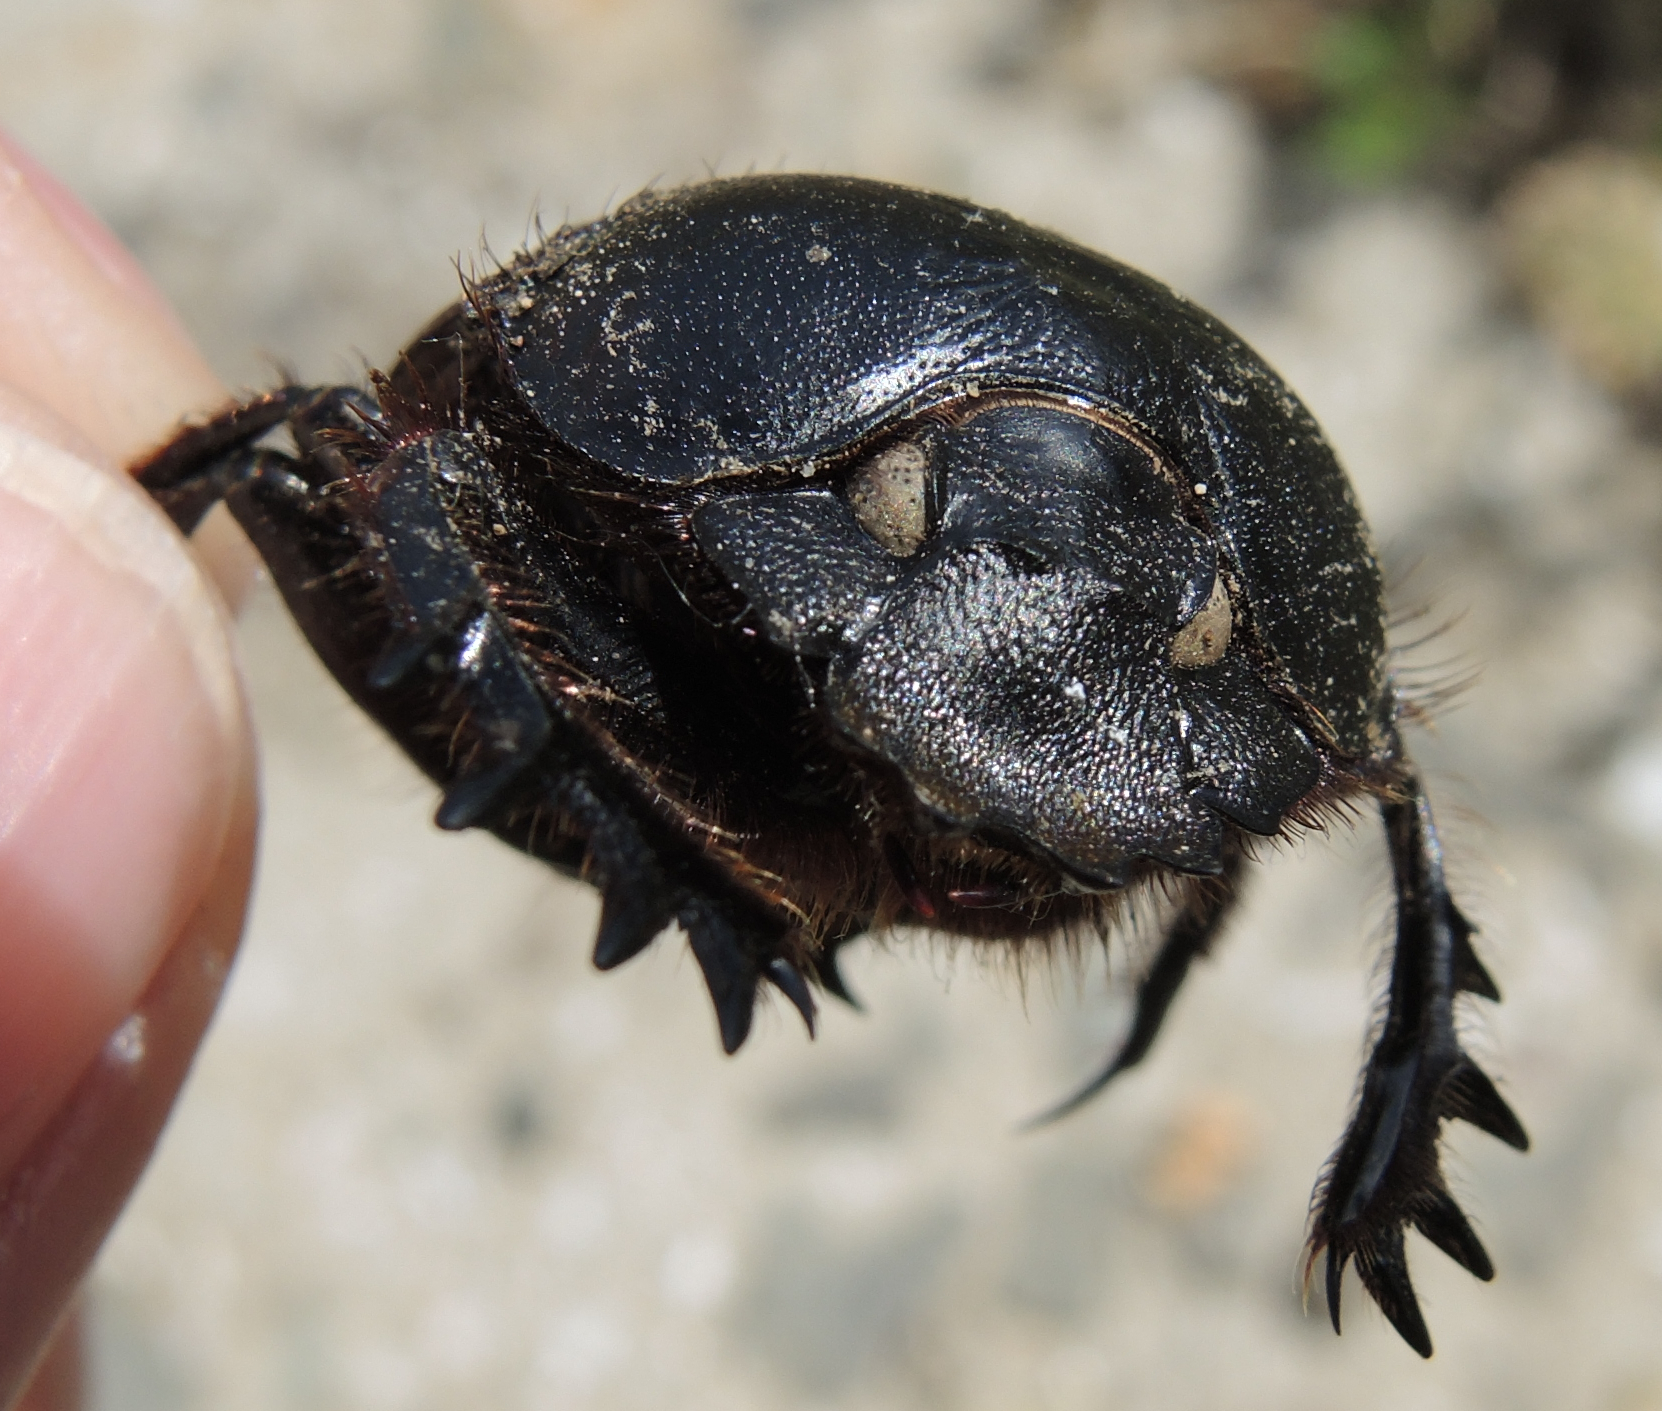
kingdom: Animalia
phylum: Arthropoda
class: Insecta
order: Coleoptera
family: Scarabaeidae
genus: Scarabaeus
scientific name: Scarabaeus typhon
